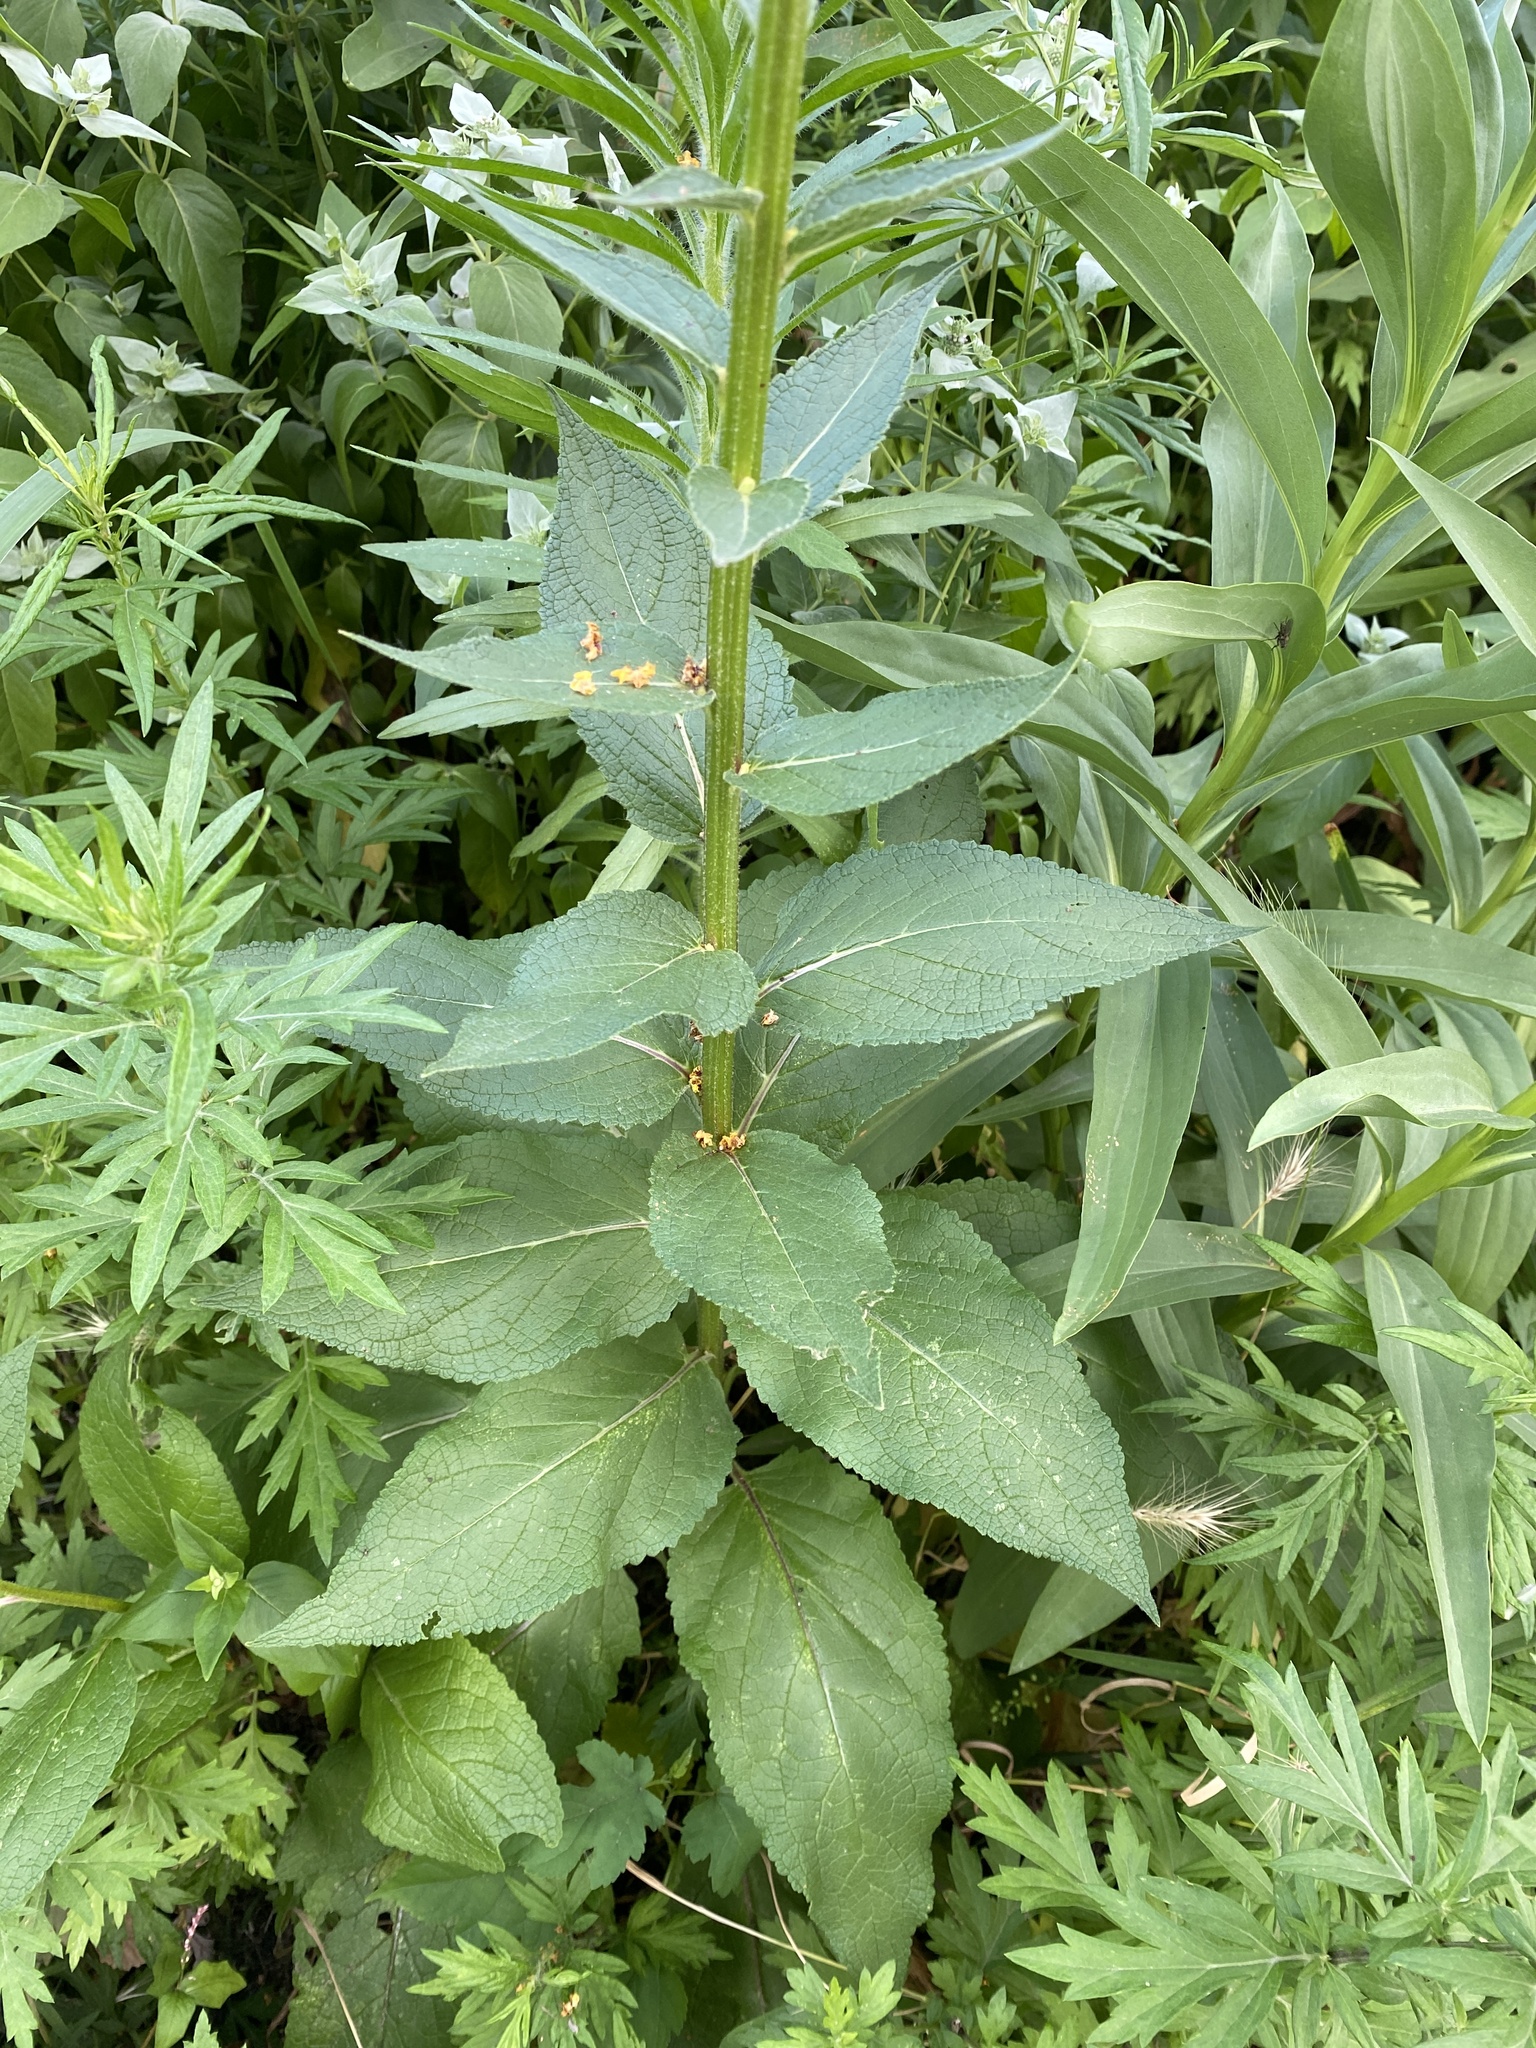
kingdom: Plantae
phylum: Tracheophyta
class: Magnoliopsida
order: Lamiales
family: Scrophulariaceae
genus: Verbascum
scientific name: Verbascum nigrum
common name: Dark mullein
